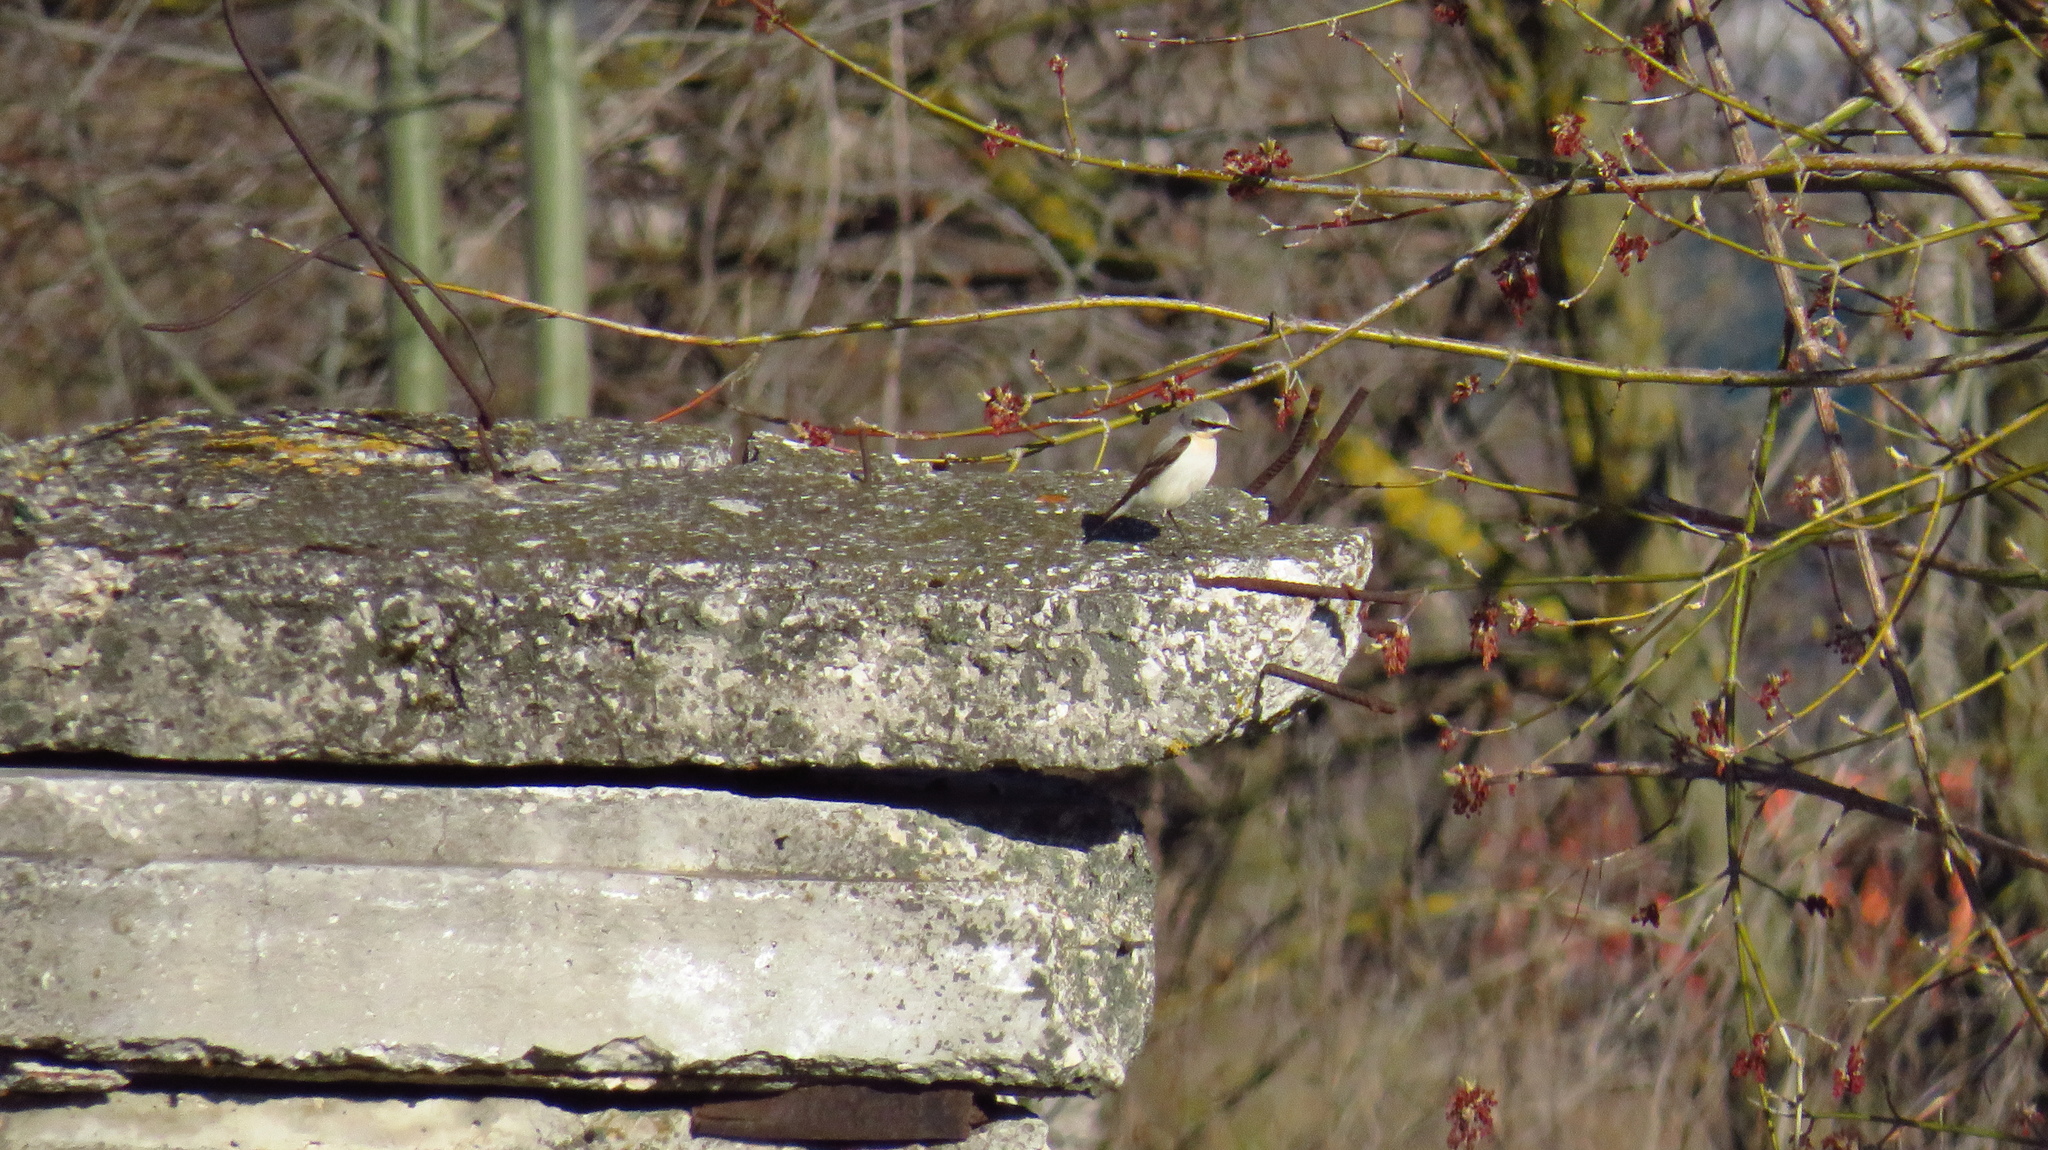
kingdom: Animalia
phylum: Chordata
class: Aves
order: Passeriformes
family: Muscicapidae
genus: Oenanthe
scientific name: Oenanthe oenanthe
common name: Northern wheatear
